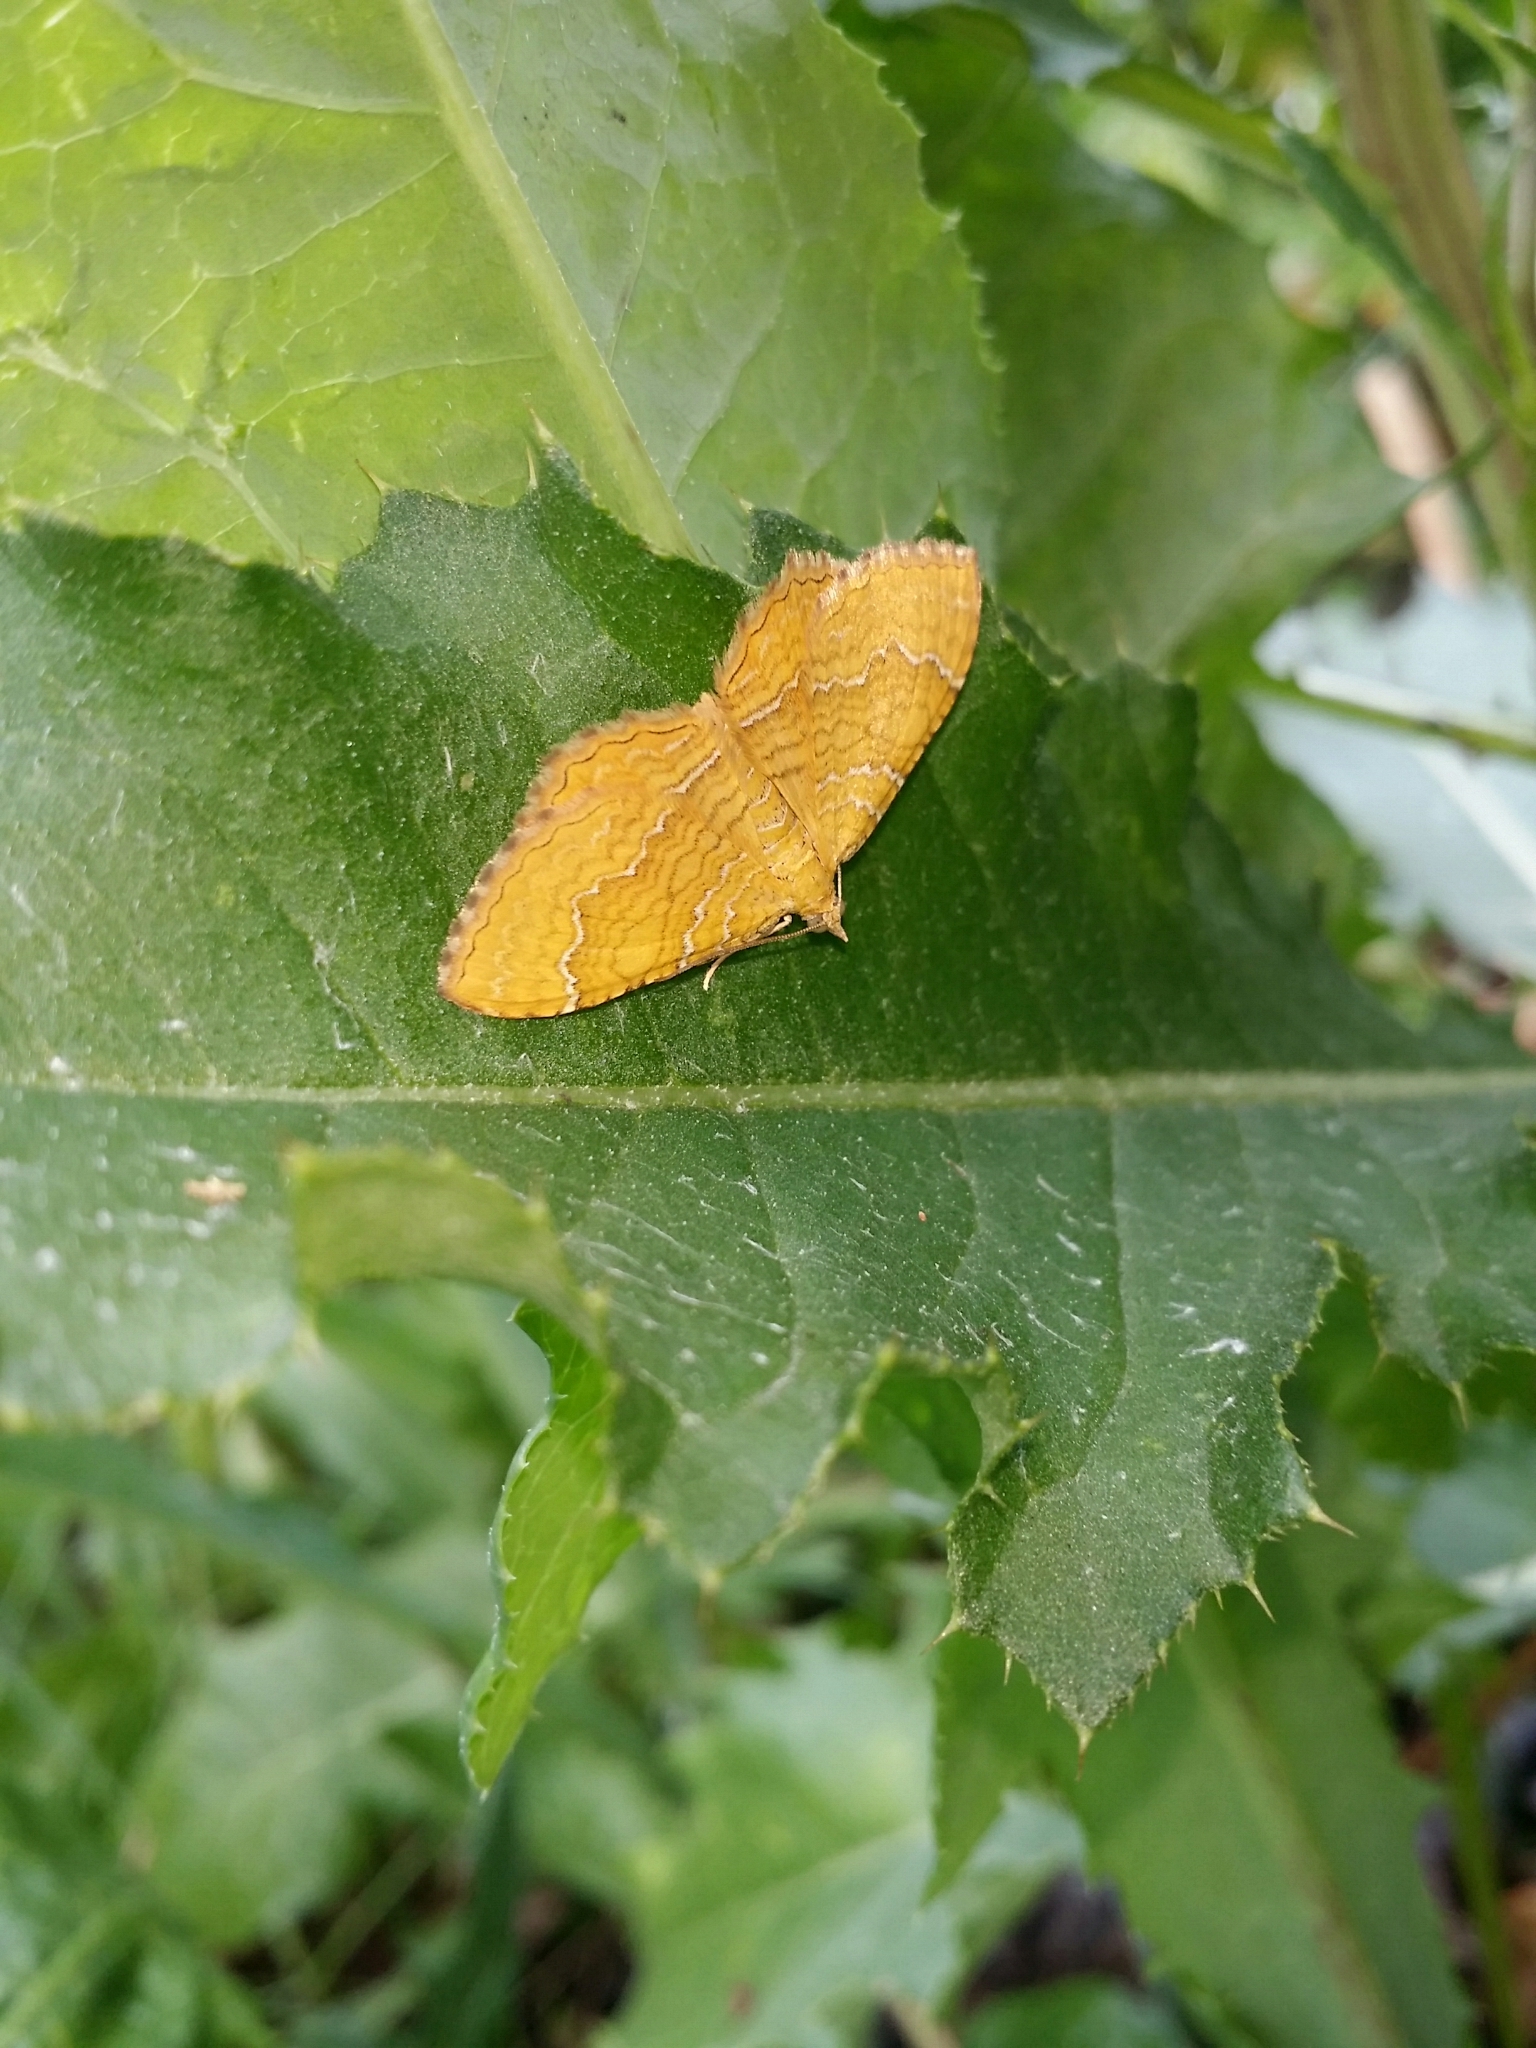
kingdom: Animalia
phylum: Arthropoda
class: Insecta
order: Lepidoptera
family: Geometridae
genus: Camptogramma
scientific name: Camptogramma bilineata
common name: Yellow shell
